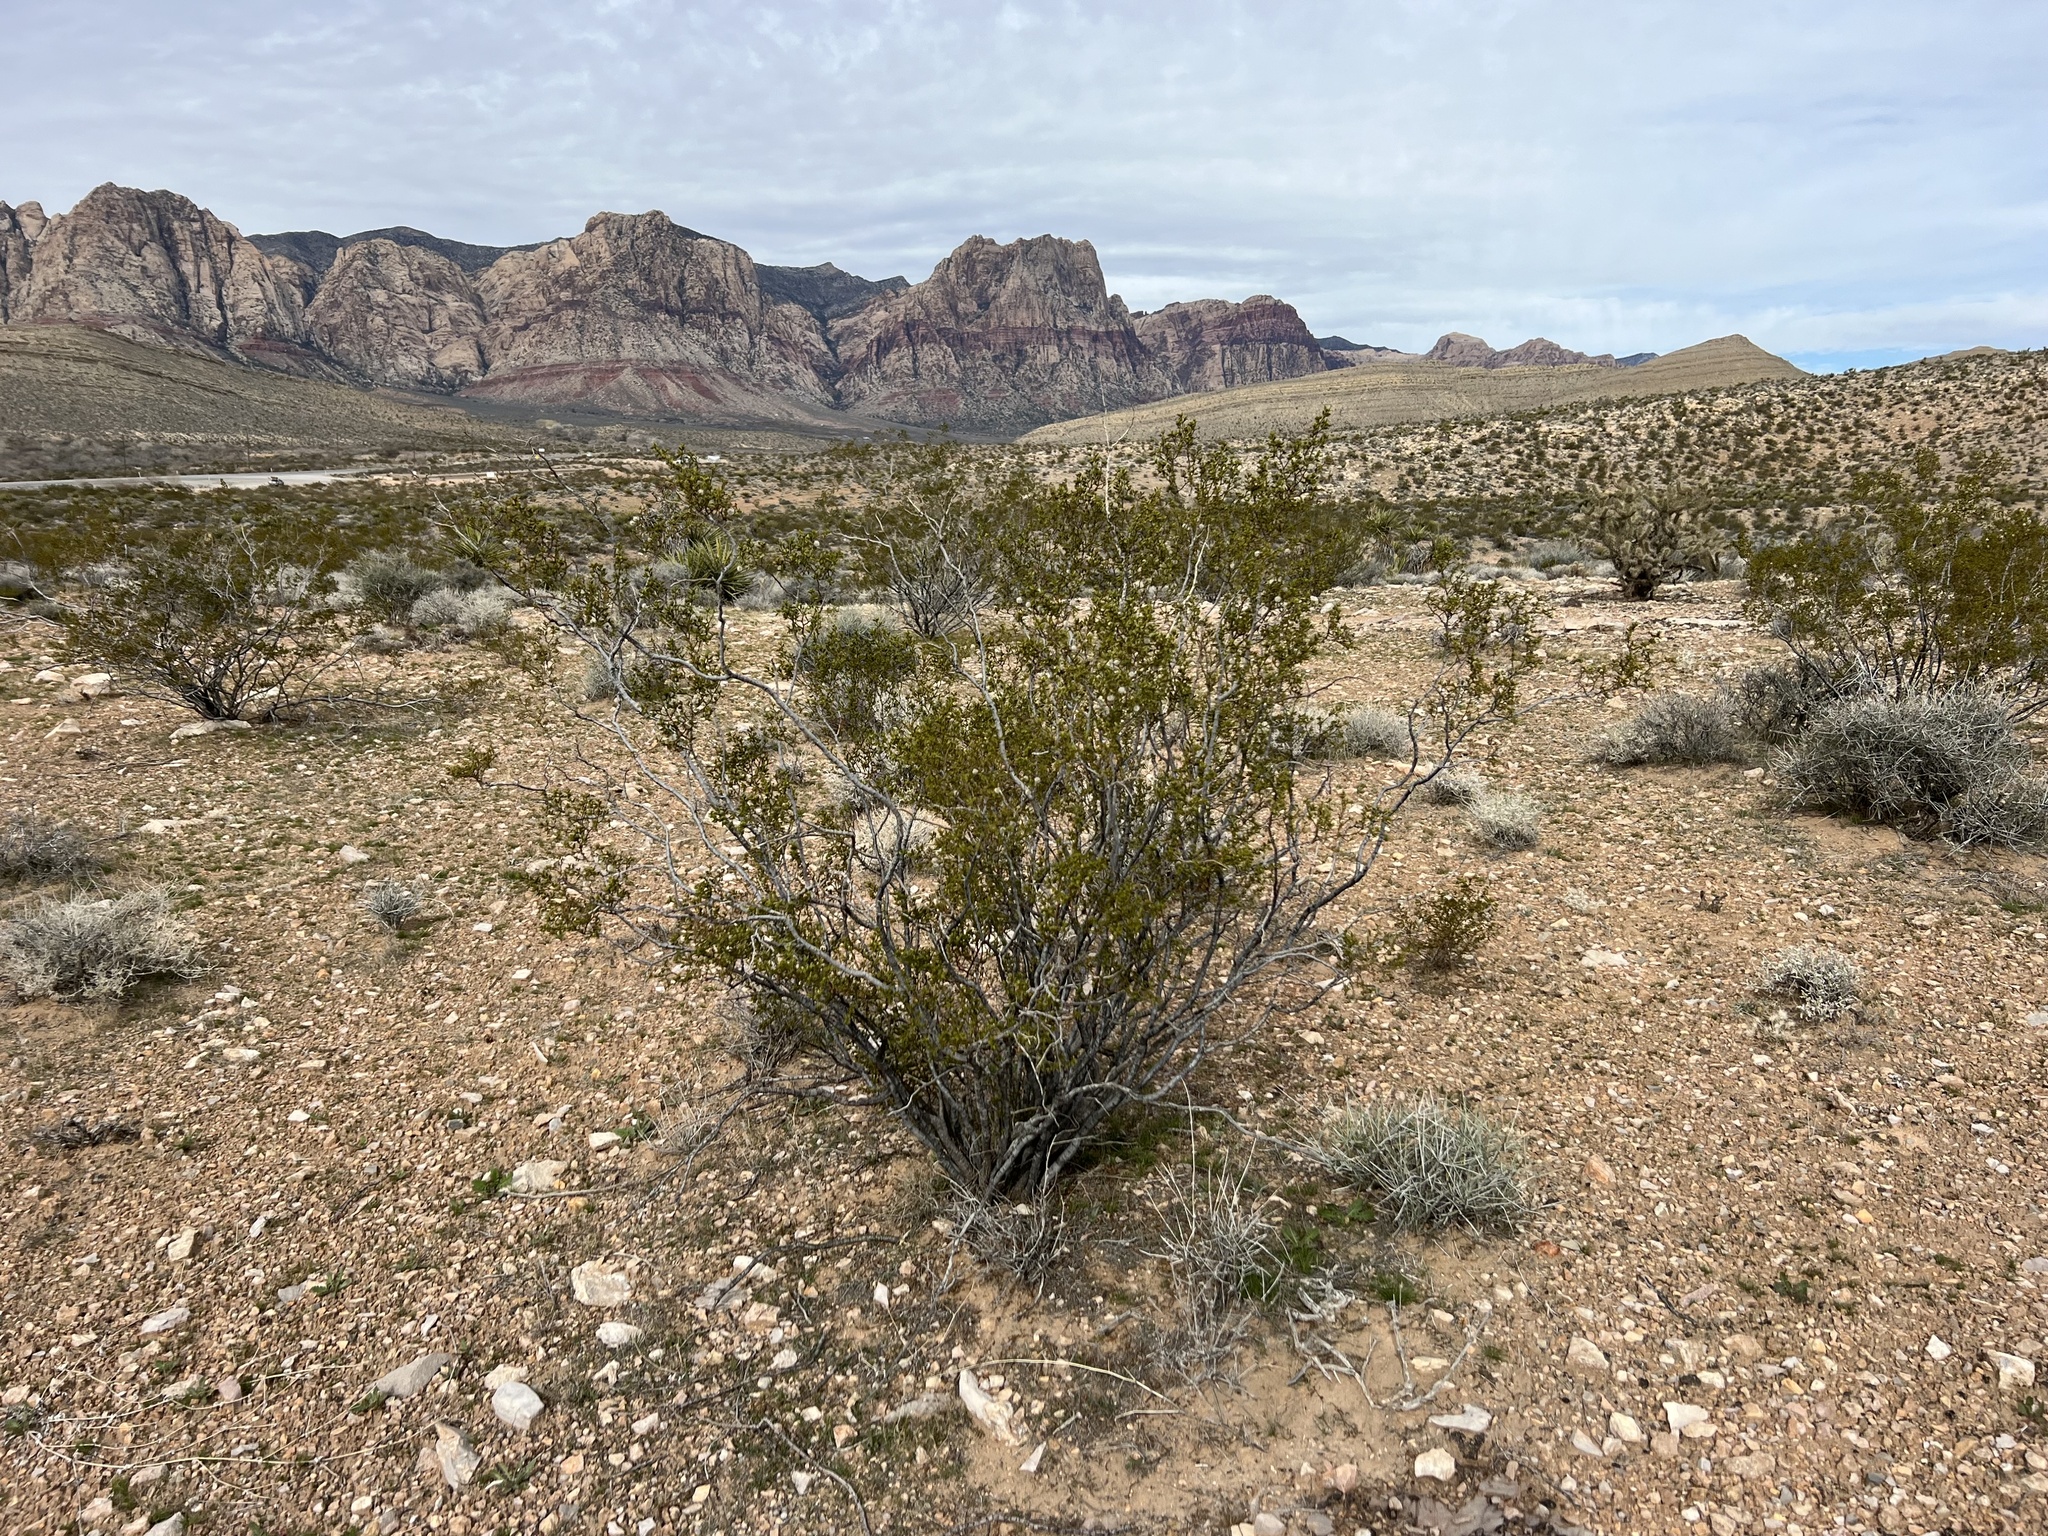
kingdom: Plantae
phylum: Tracheophyta
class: Magnoliopsida
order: Zygophyllales
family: Zygophyllaceae
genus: Larrea
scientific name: Larrea tridentata
